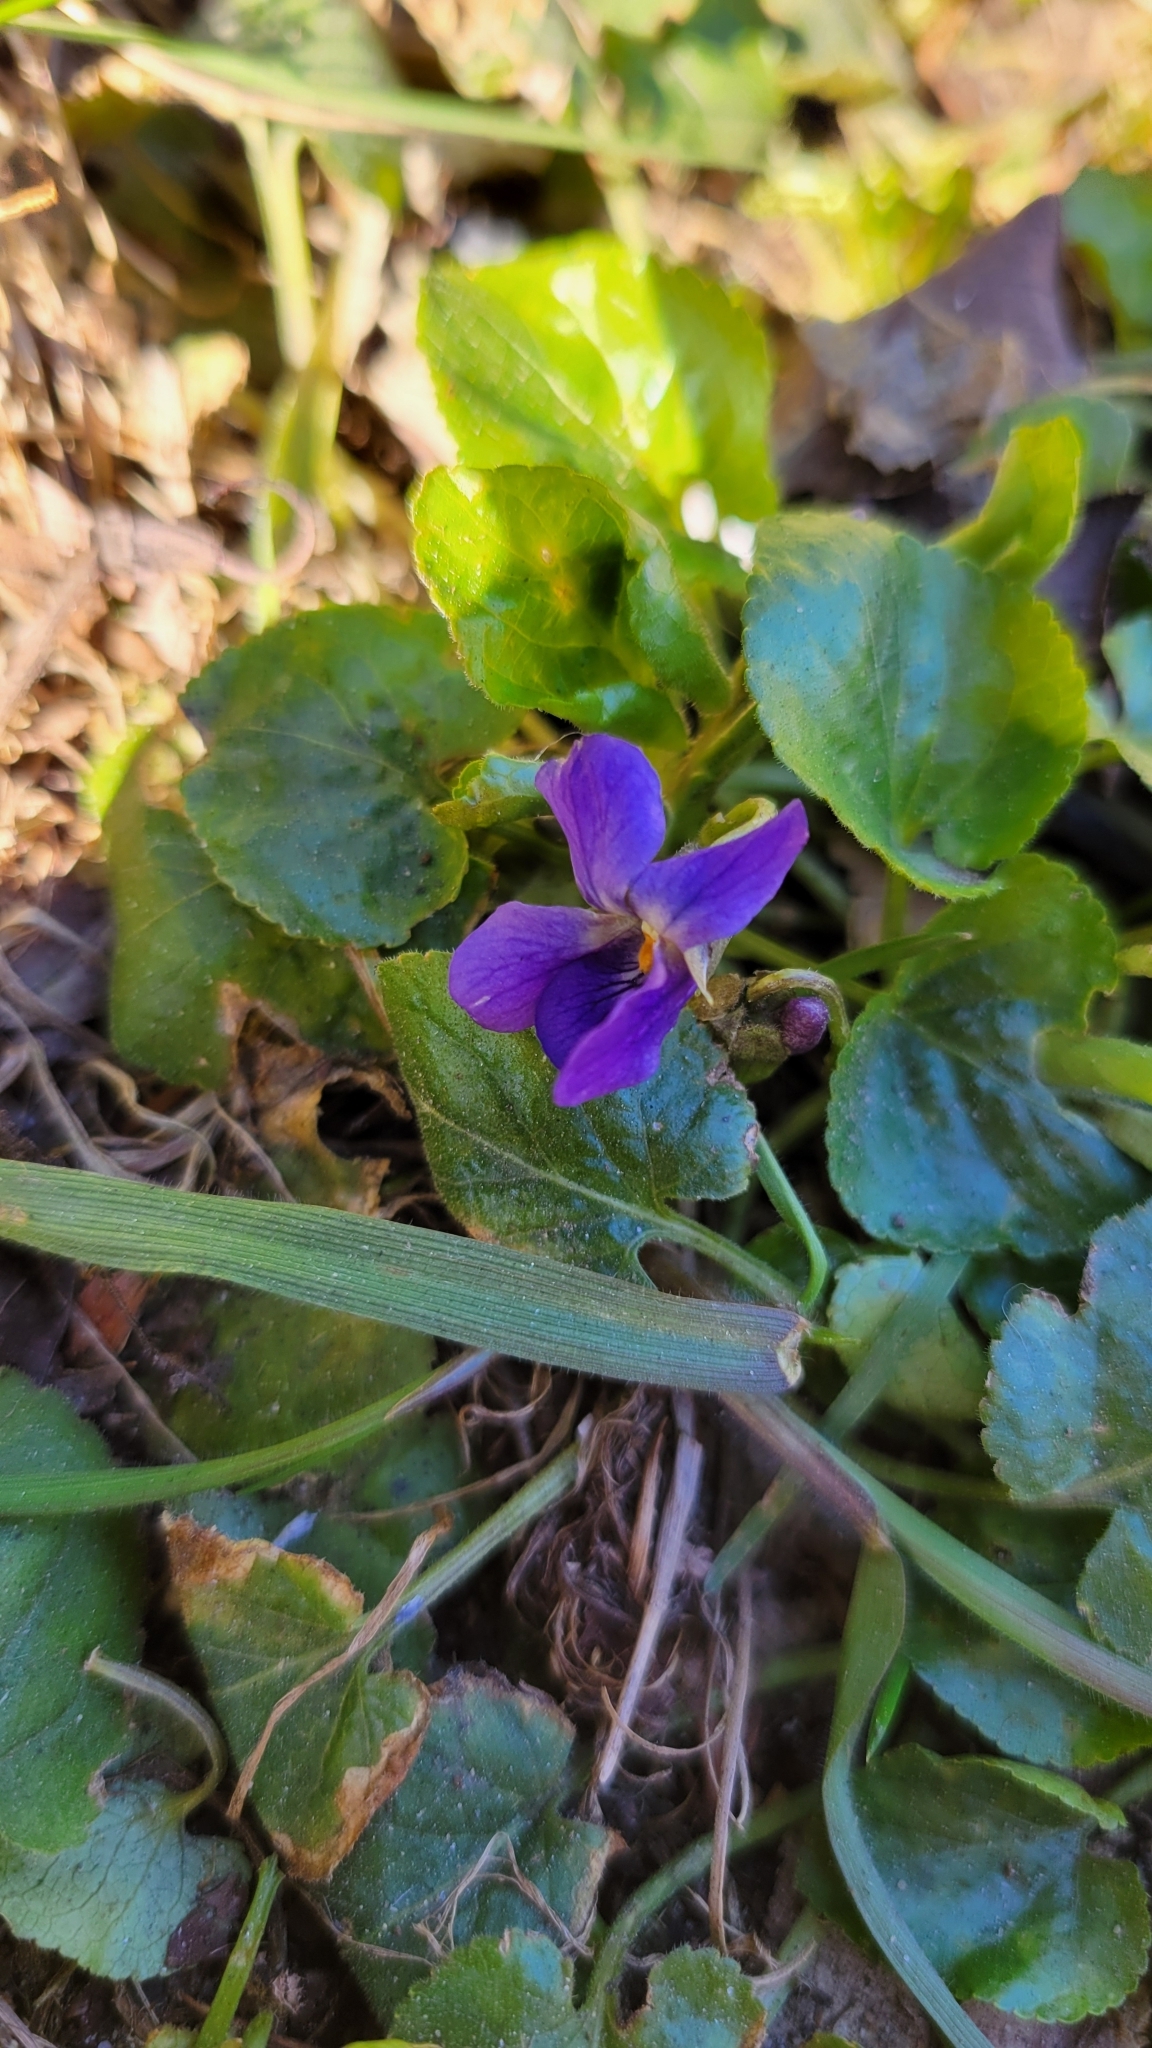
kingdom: Plantae
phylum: Tracheophyta
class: Magnoliopsida
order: Malpighiales
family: Violaceae
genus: Viola
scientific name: Viola odorata
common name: Sweet violet
